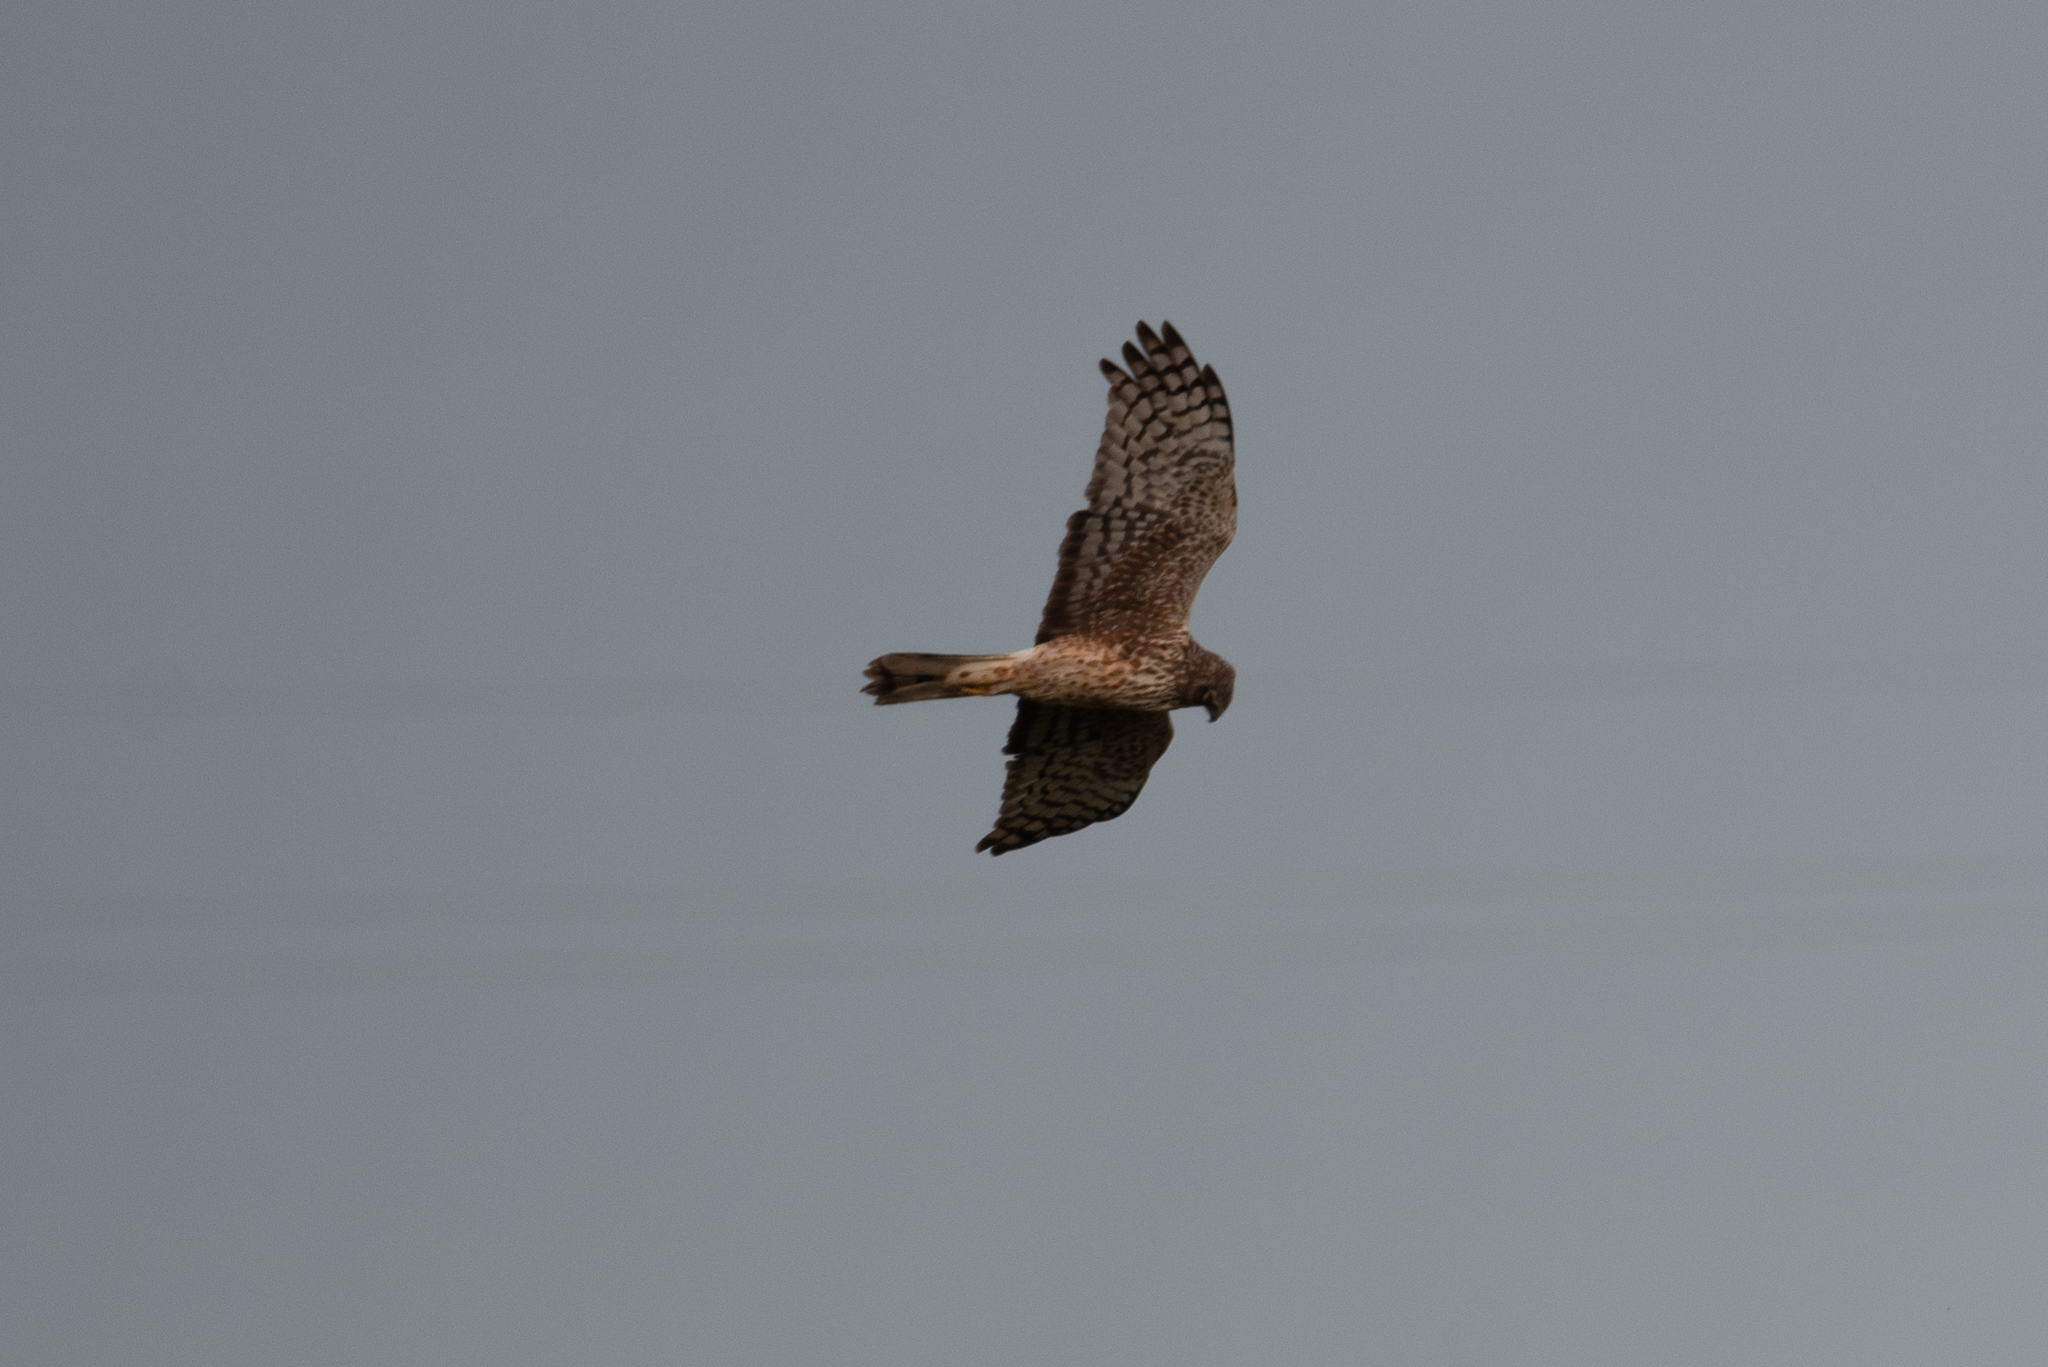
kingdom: Animalia
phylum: Chordata
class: Aves
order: Accipitriformes
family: Accipitridae
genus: Circus
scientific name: Circus cyaneus
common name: Hen harrier
